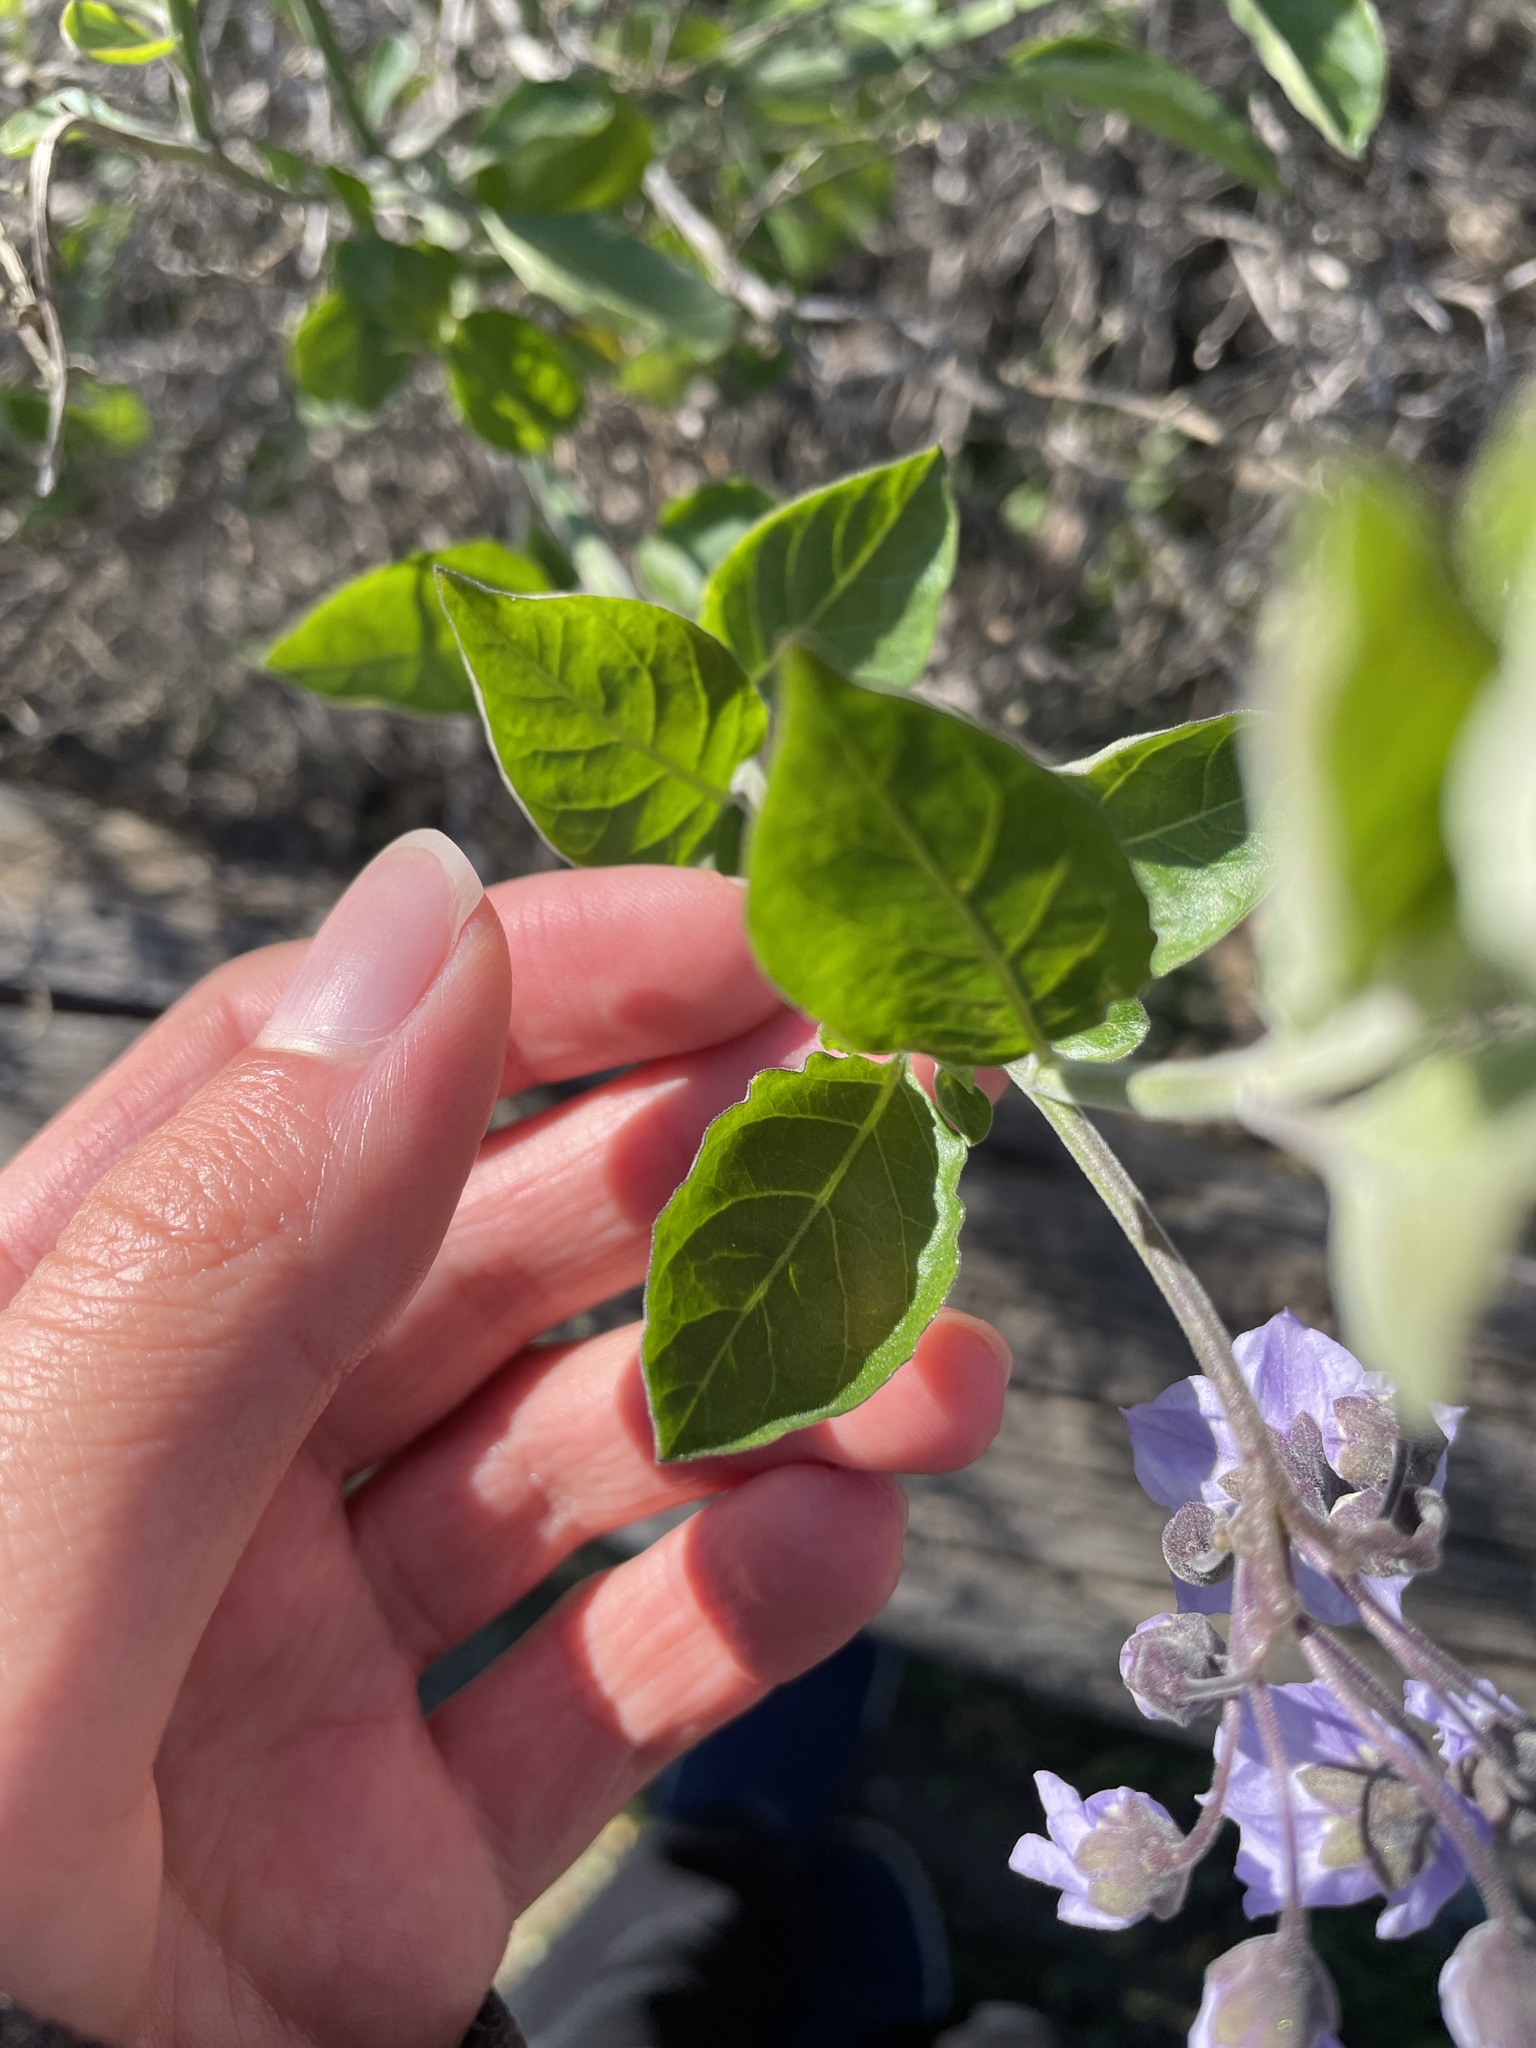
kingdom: Plantae
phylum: Tracheophyta
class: Magnoliopsida
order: Solanales
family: Solanaceae
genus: Solanum
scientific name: Solanum umbelliferum
